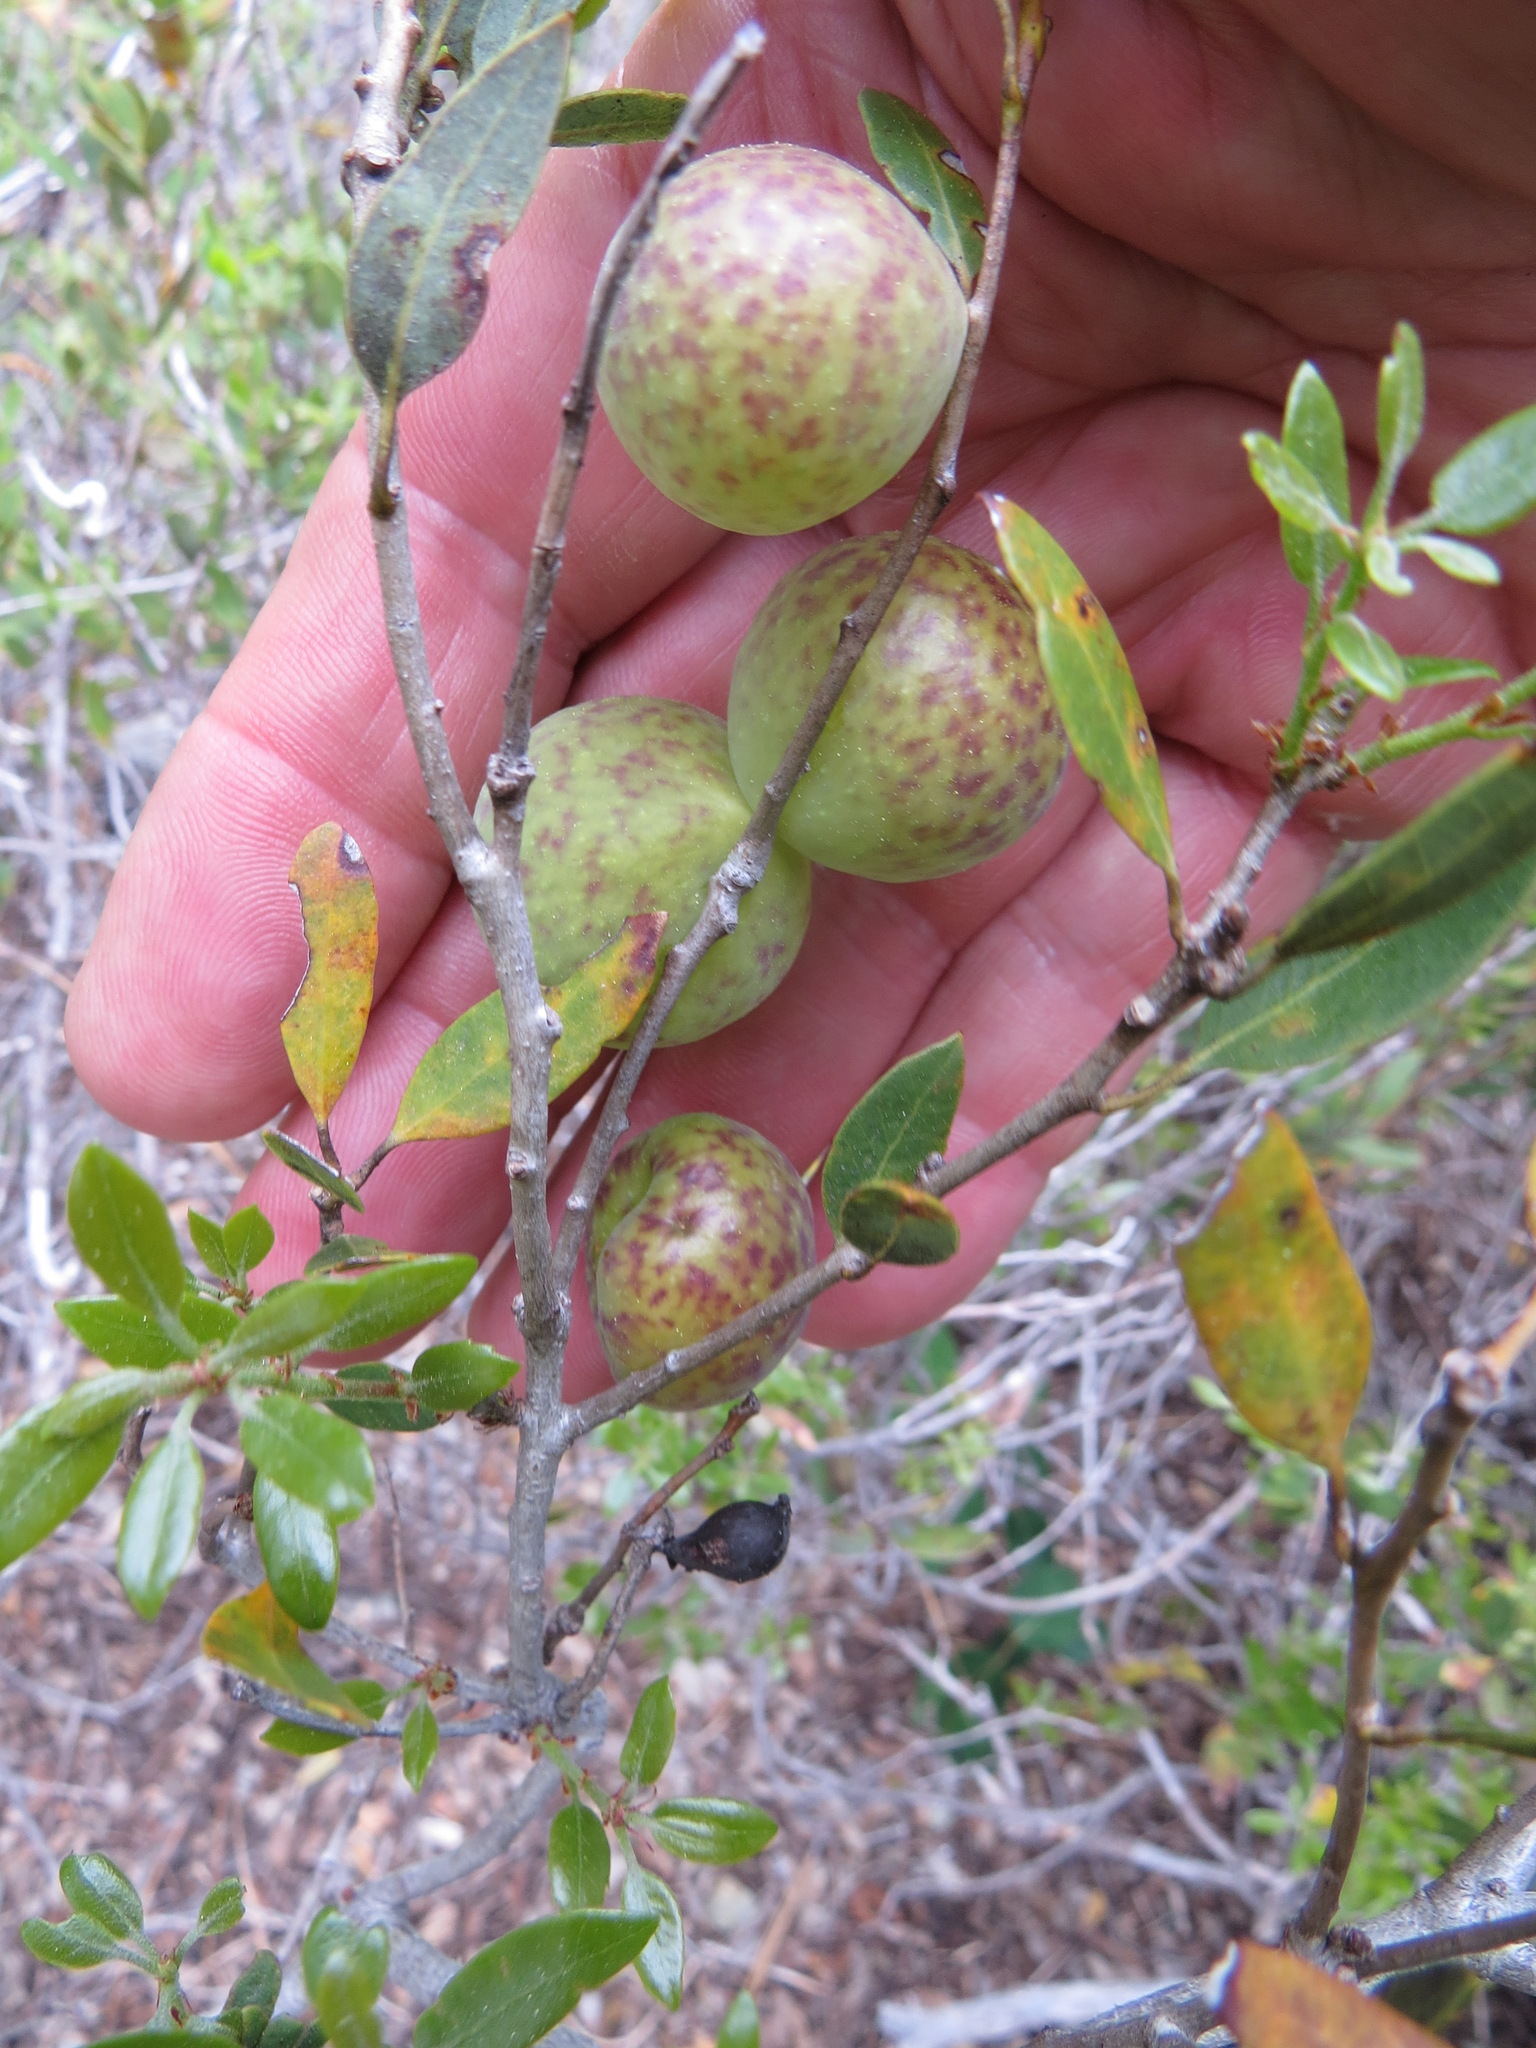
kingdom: Animalia
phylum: Arthropoda
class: Insecta
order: Hymenoptera
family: Cynipidae
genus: Andricus
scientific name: Andricus
